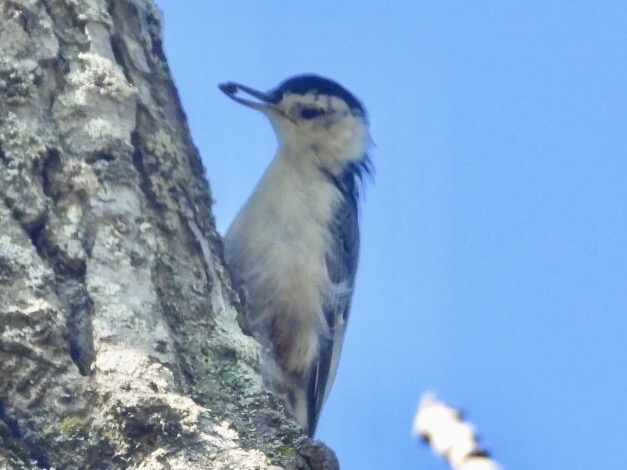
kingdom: Animalia
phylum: Chordata
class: Aves
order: Passeriformes
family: Sittidae
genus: Sitta
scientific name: Sitta carolinensis
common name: White-breasted nuthatch
